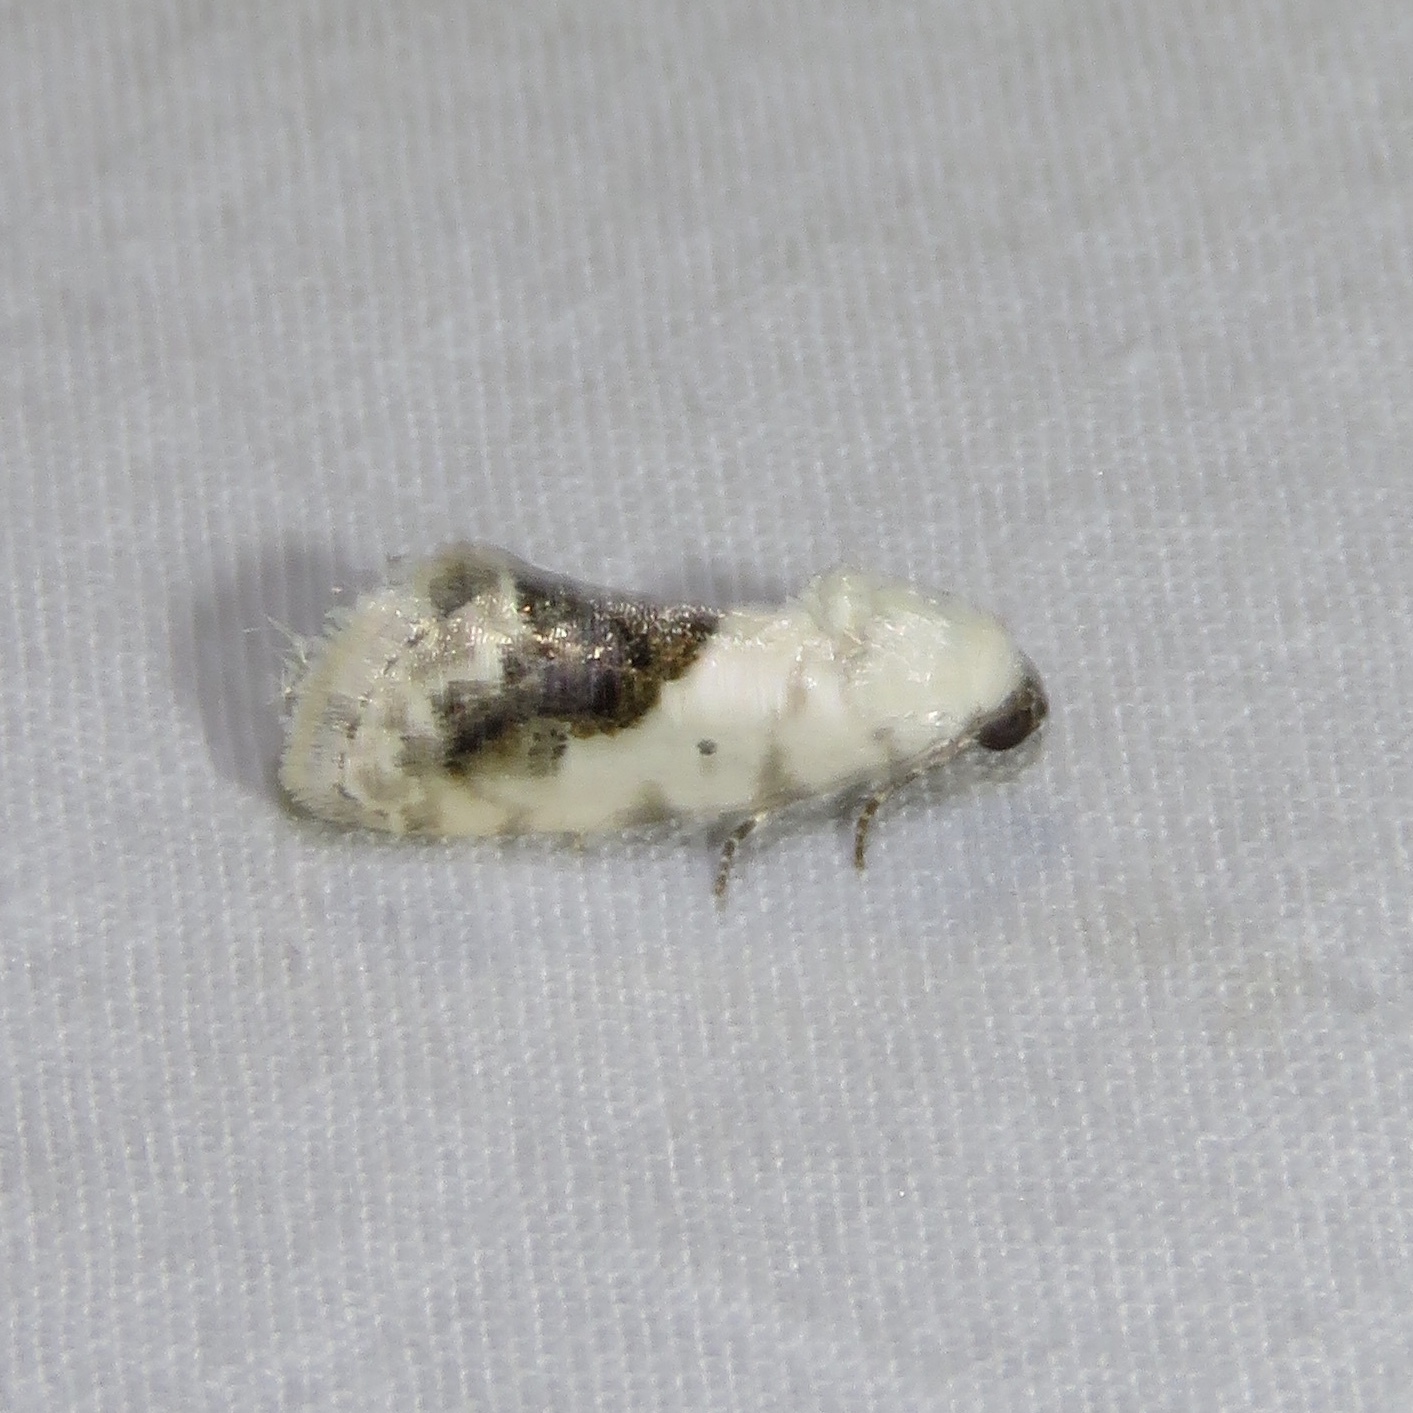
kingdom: Animalia
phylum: Arthropoda
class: Insecta
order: Lepidoptera
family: Noctuidae
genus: Acontia
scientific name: Acontia erastrioides
